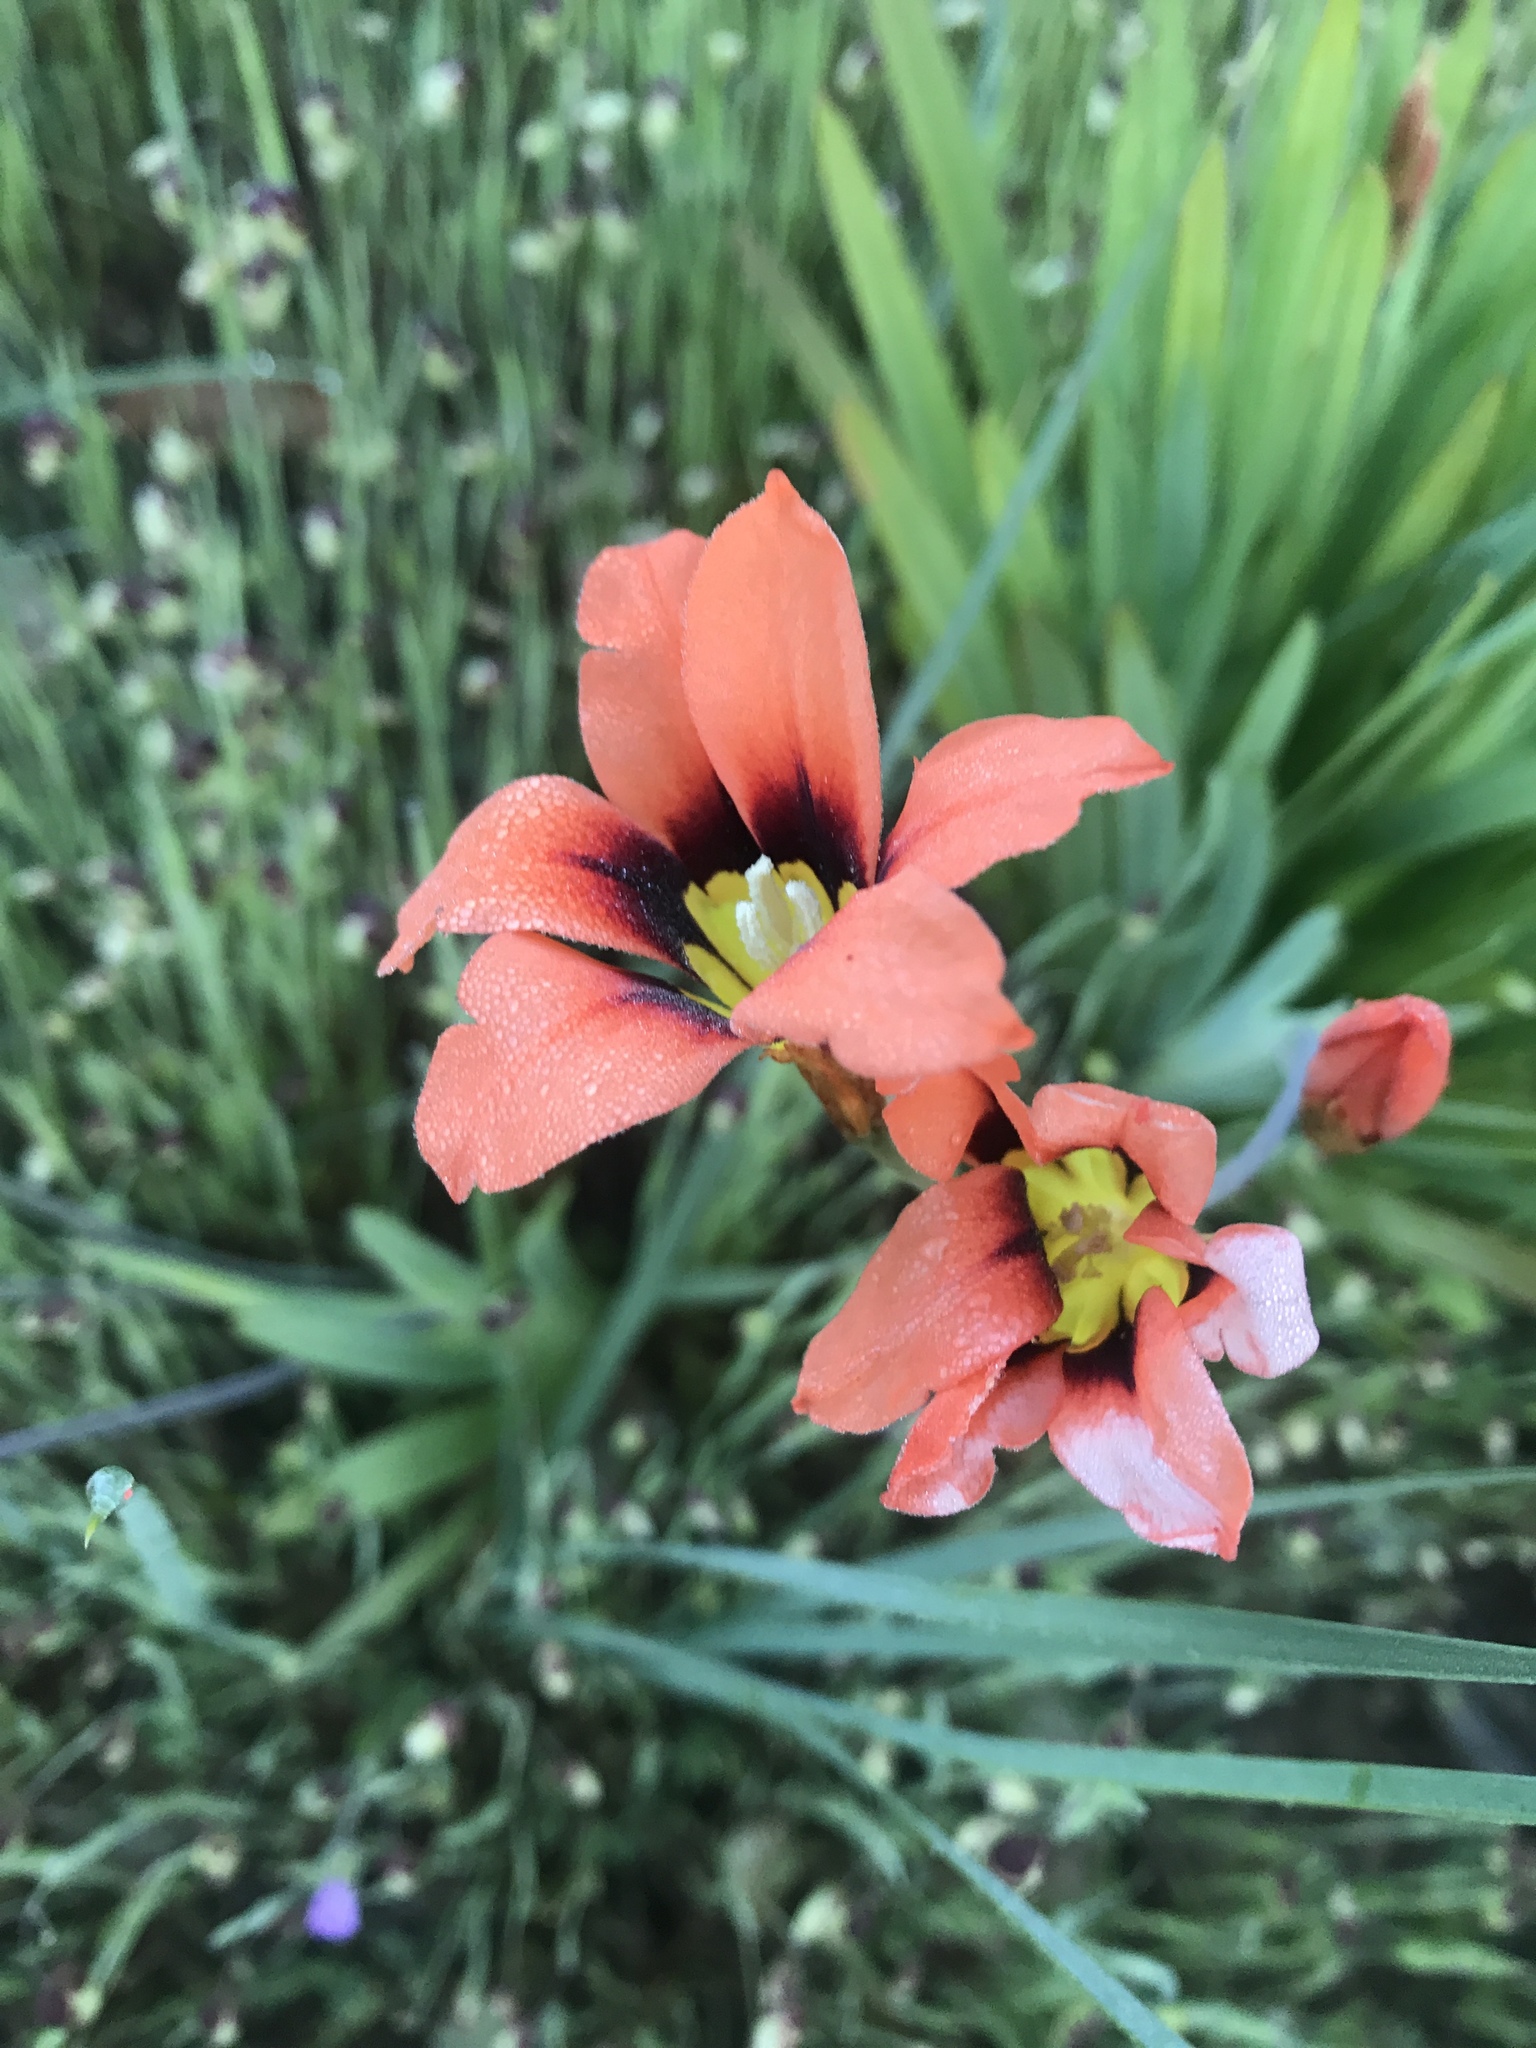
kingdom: Plantae
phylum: Tracheophyta
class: Liliopsida
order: Asparagales
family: Iridaceae
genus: Sparaxis
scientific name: Sparaxis tricolor
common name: Wandflower
